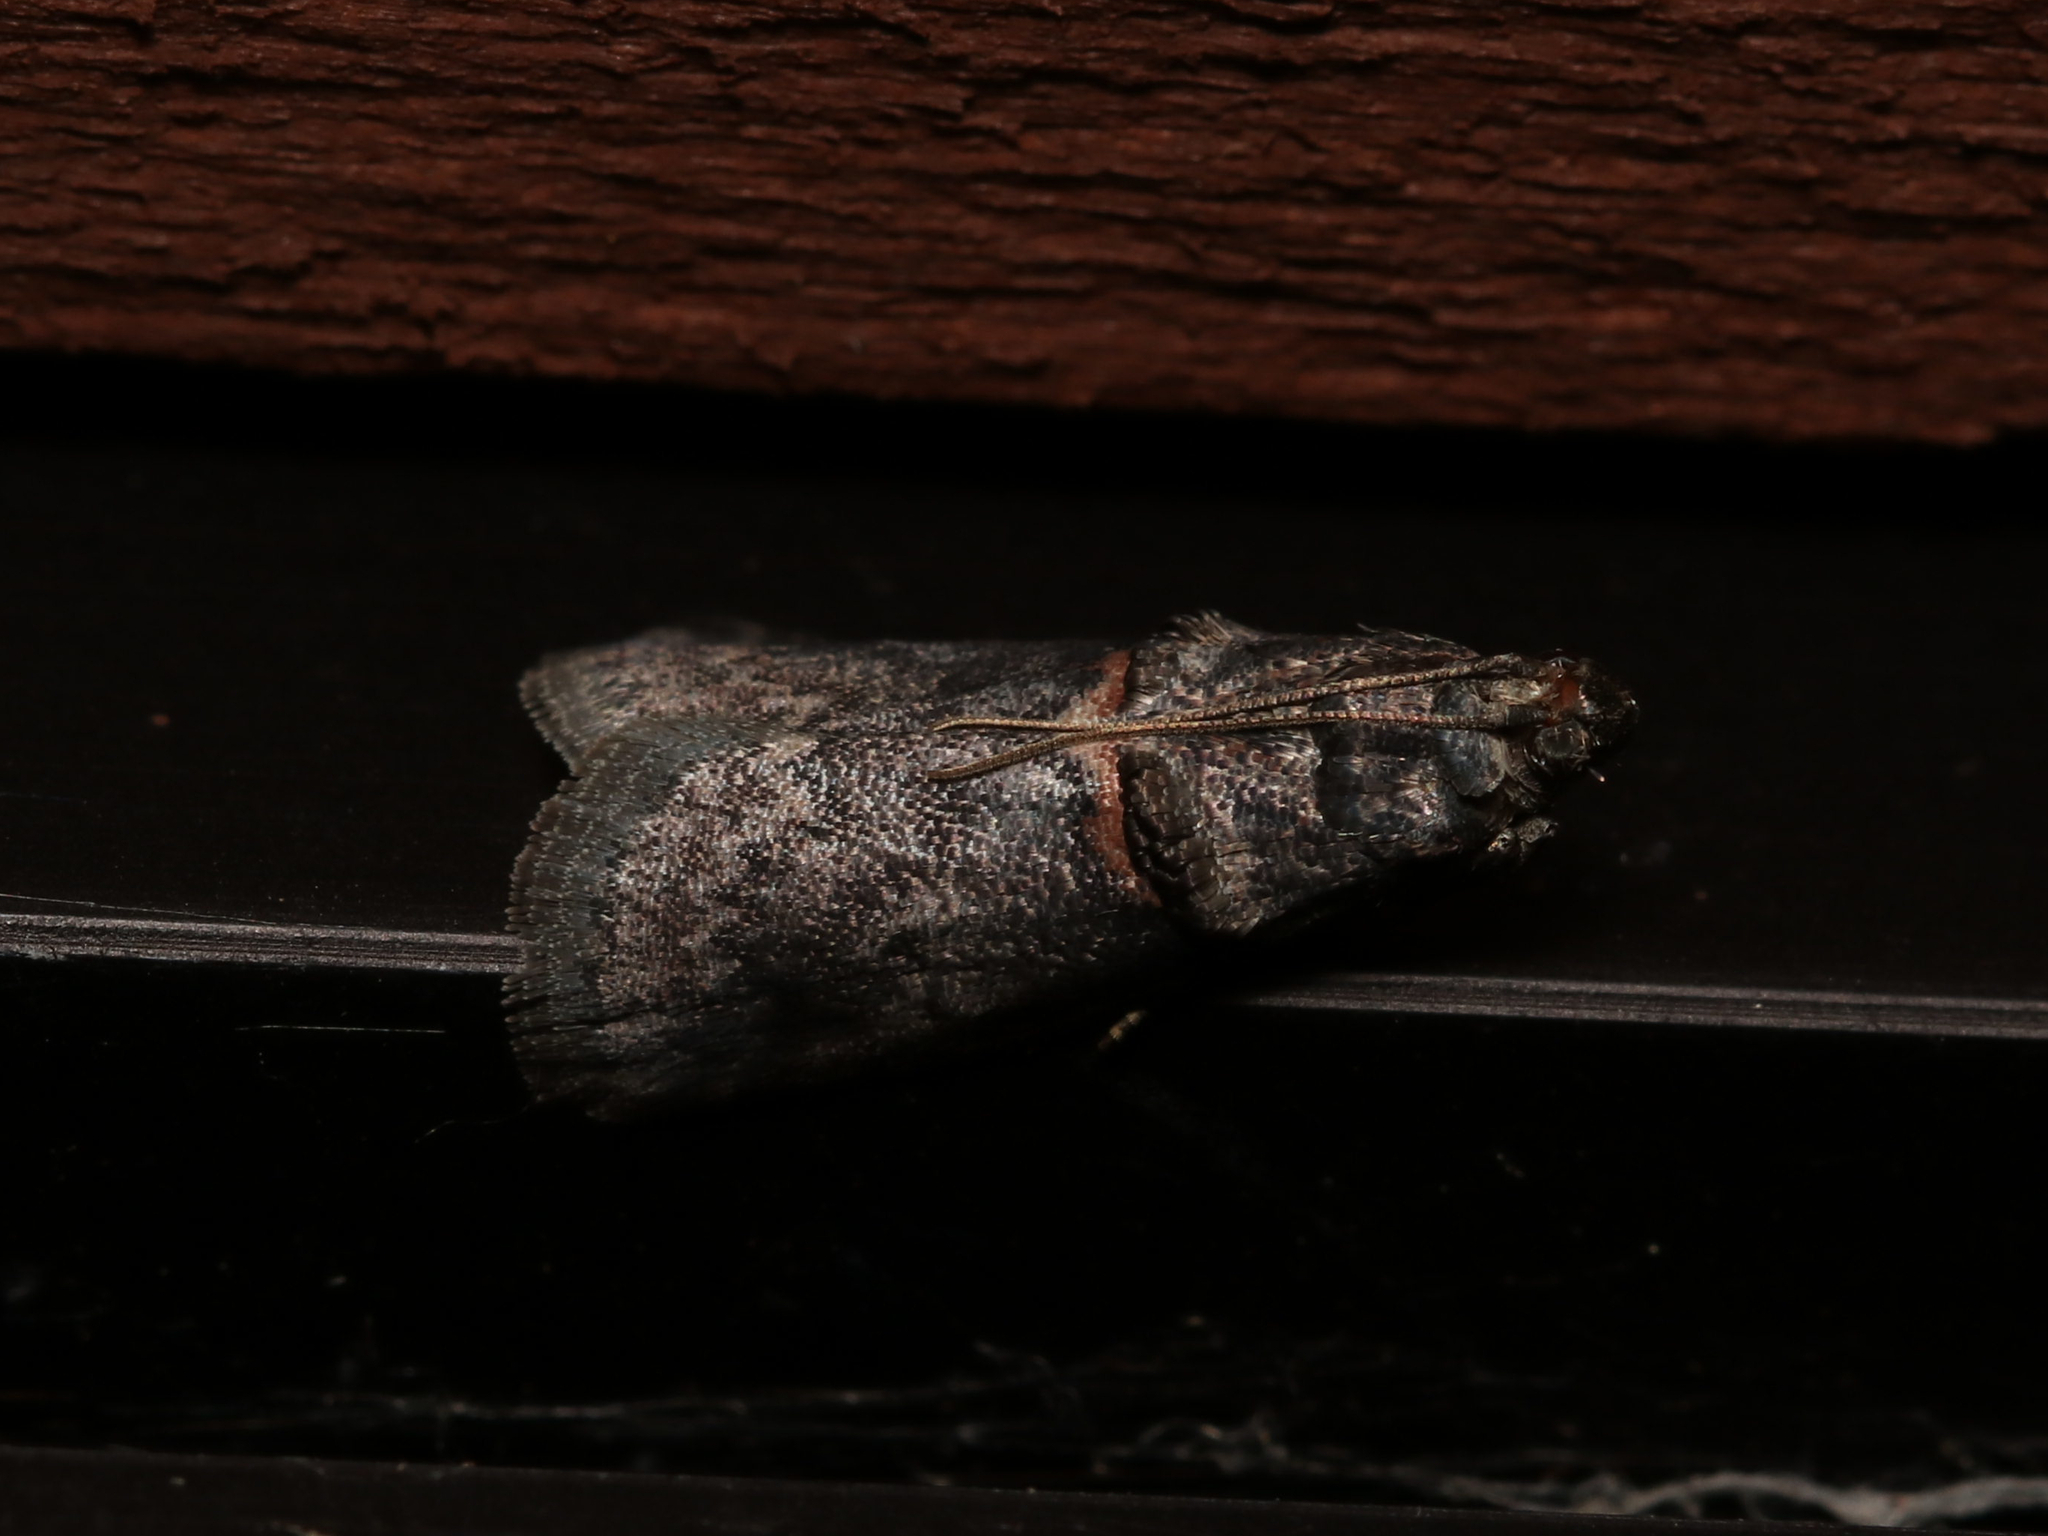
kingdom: Animalia
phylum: Arthropoda
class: Insecta
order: Lepidoptera
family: Pyralidae
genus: Acrobasis
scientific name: Acrobasis caryae
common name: Hickory shoot borer moth
